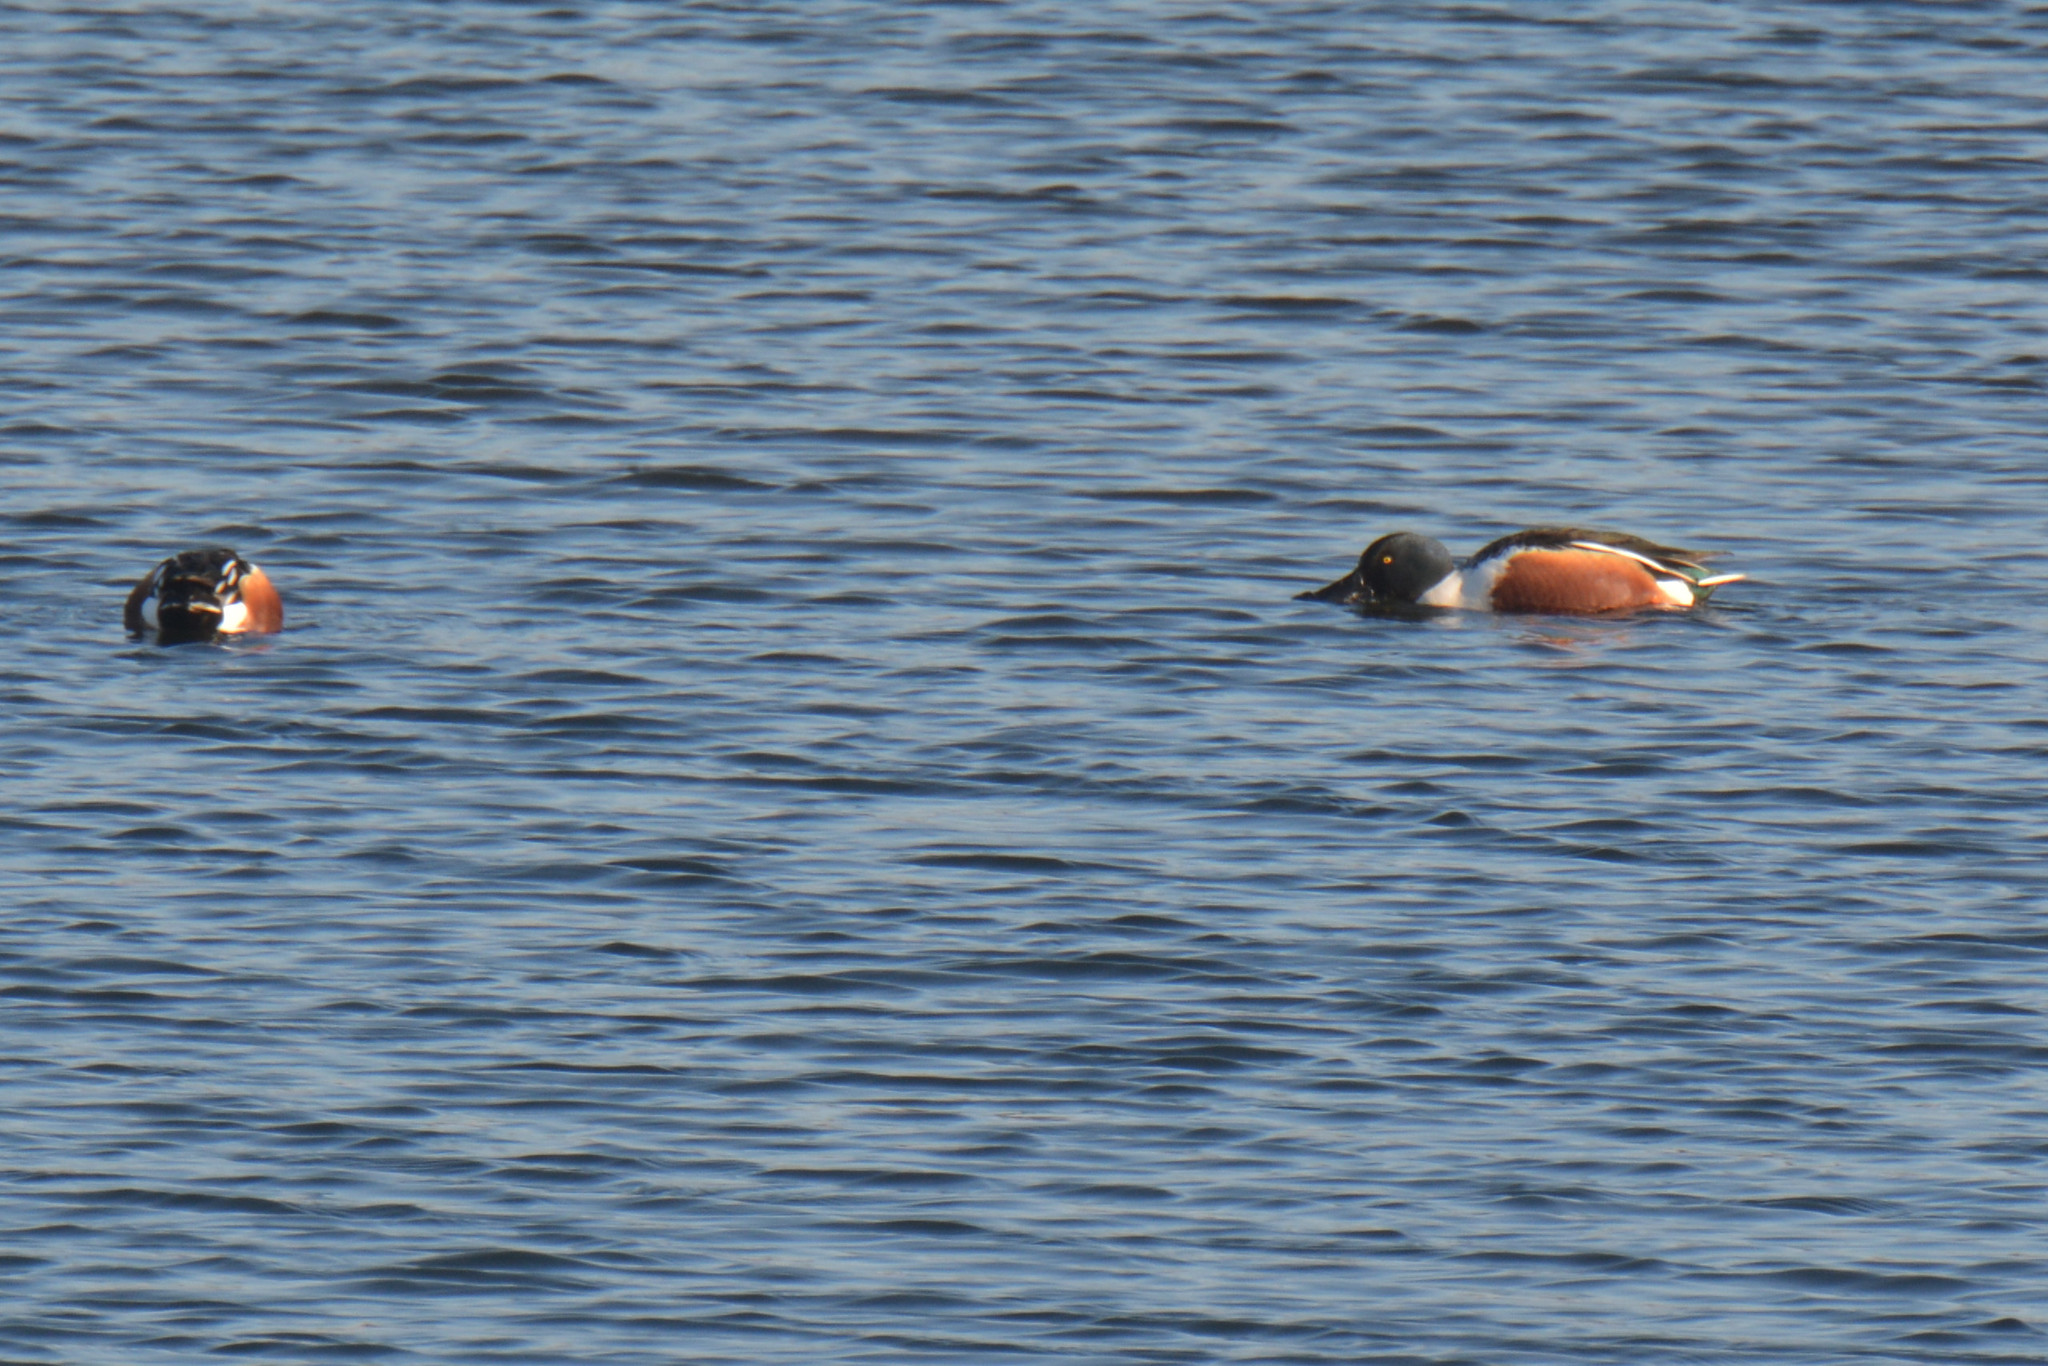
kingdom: Animalia
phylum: Chordata
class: Aves
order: Anseriformes
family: Anatidae
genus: Spatula
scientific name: Spatula clypeata
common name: Northern shoveler
